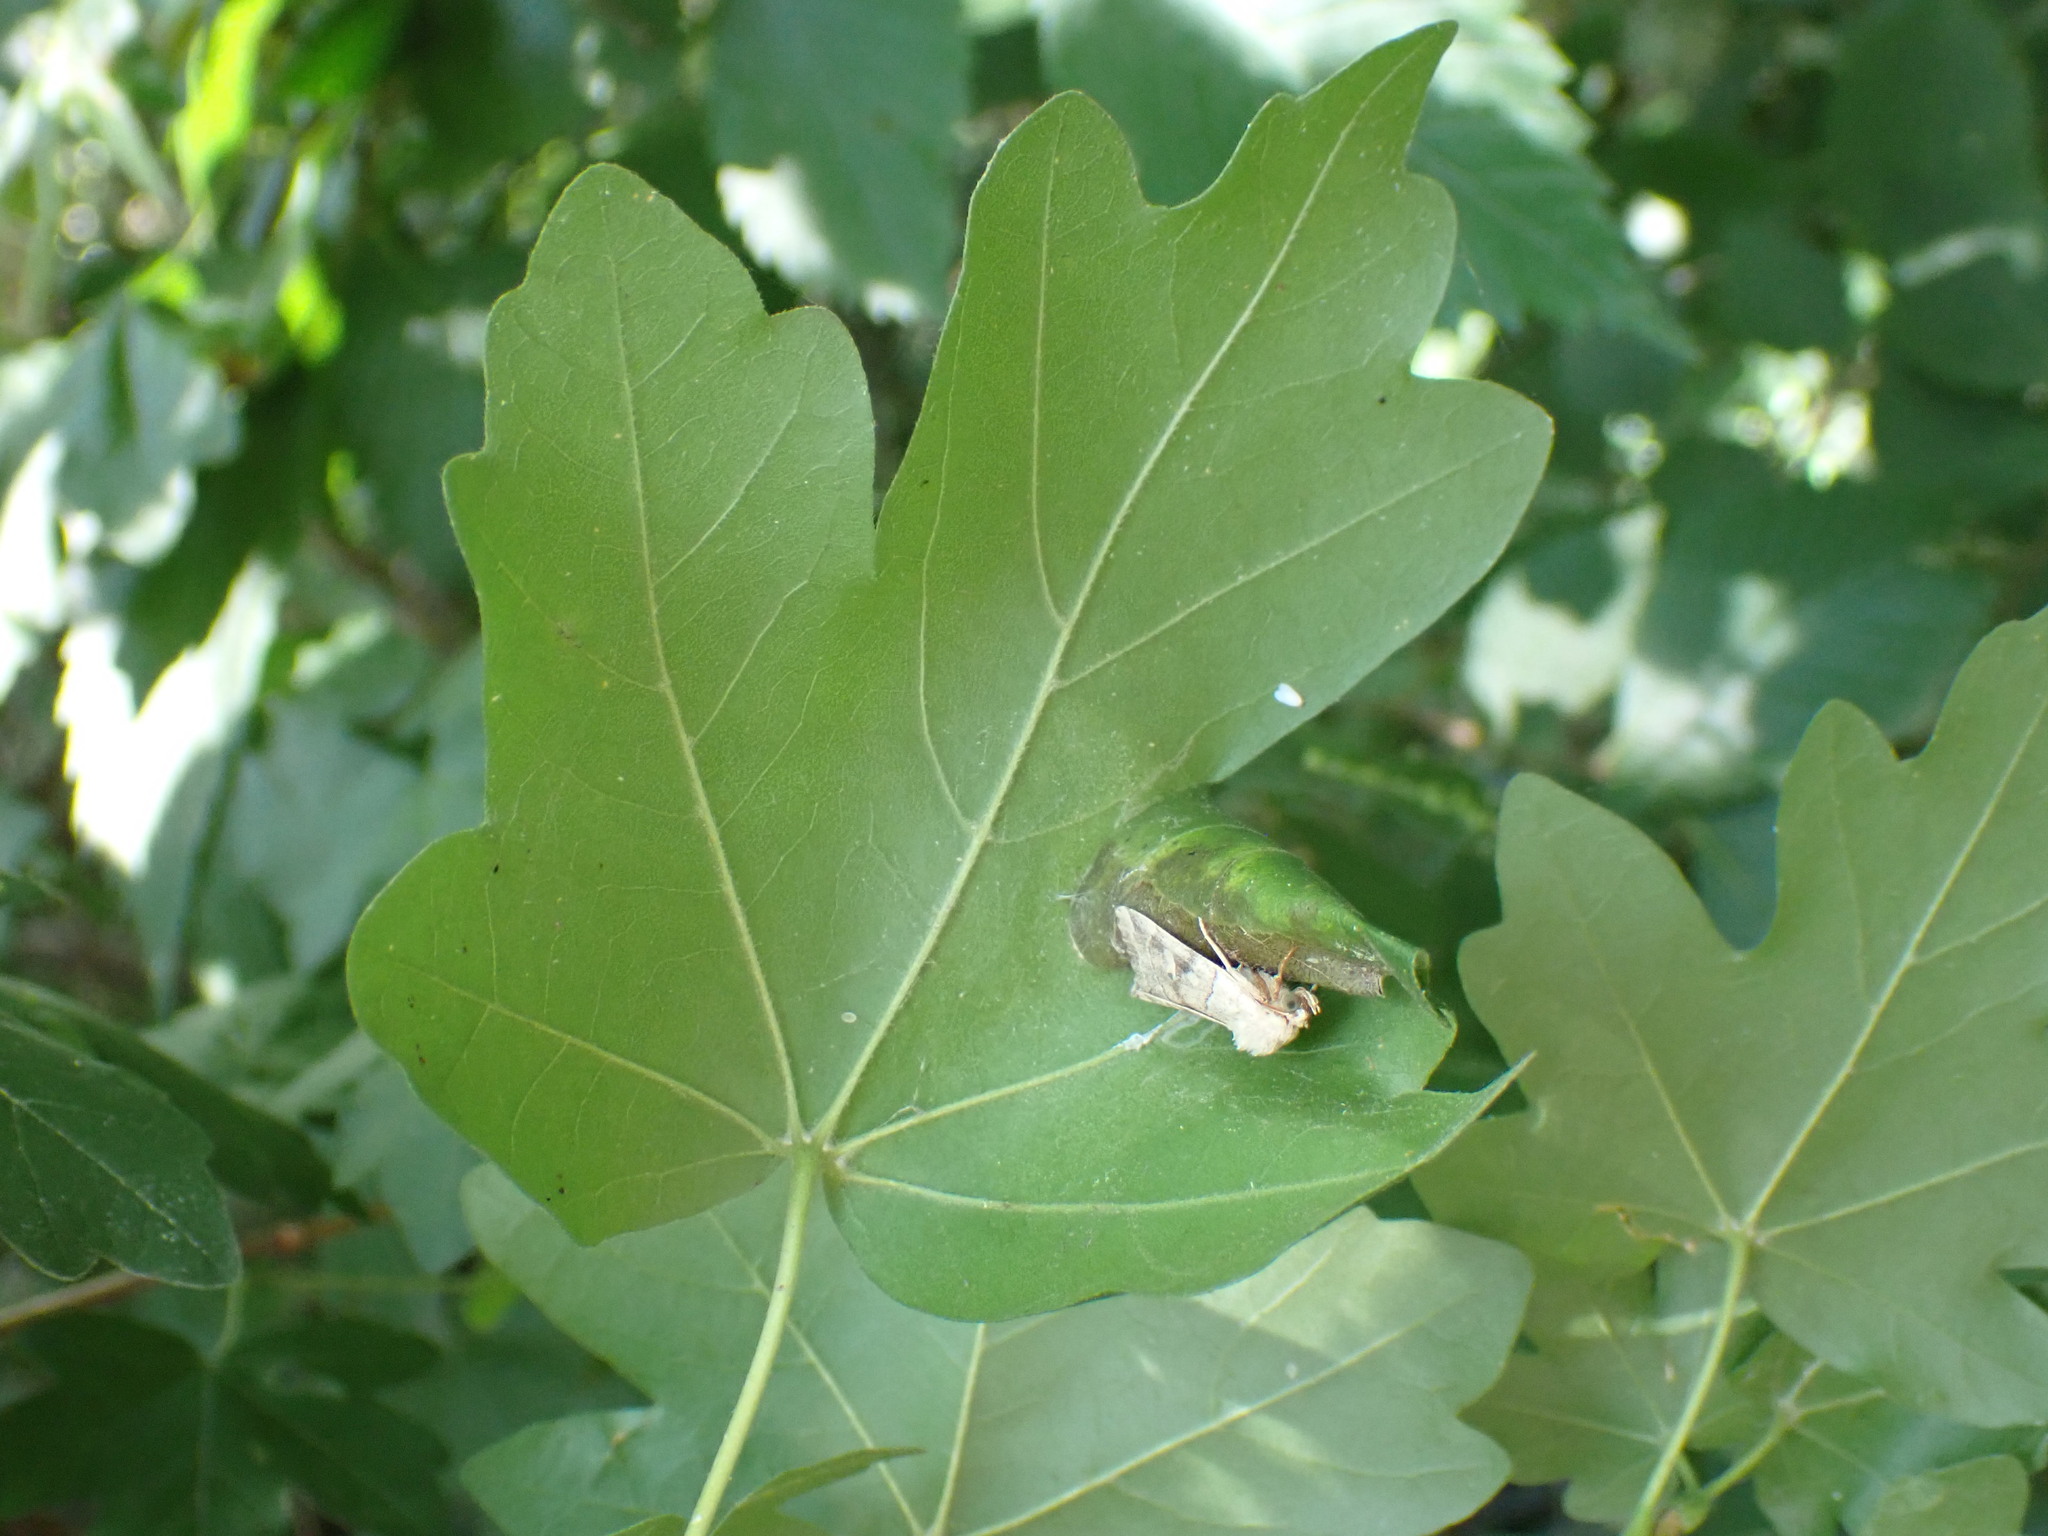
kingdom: Animalia
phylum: Arthropoda
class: Insecta
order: Lepidoptera
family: Noctuidae
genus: Cosmia
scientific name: Cosmia trapezina
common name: Dun-bar
